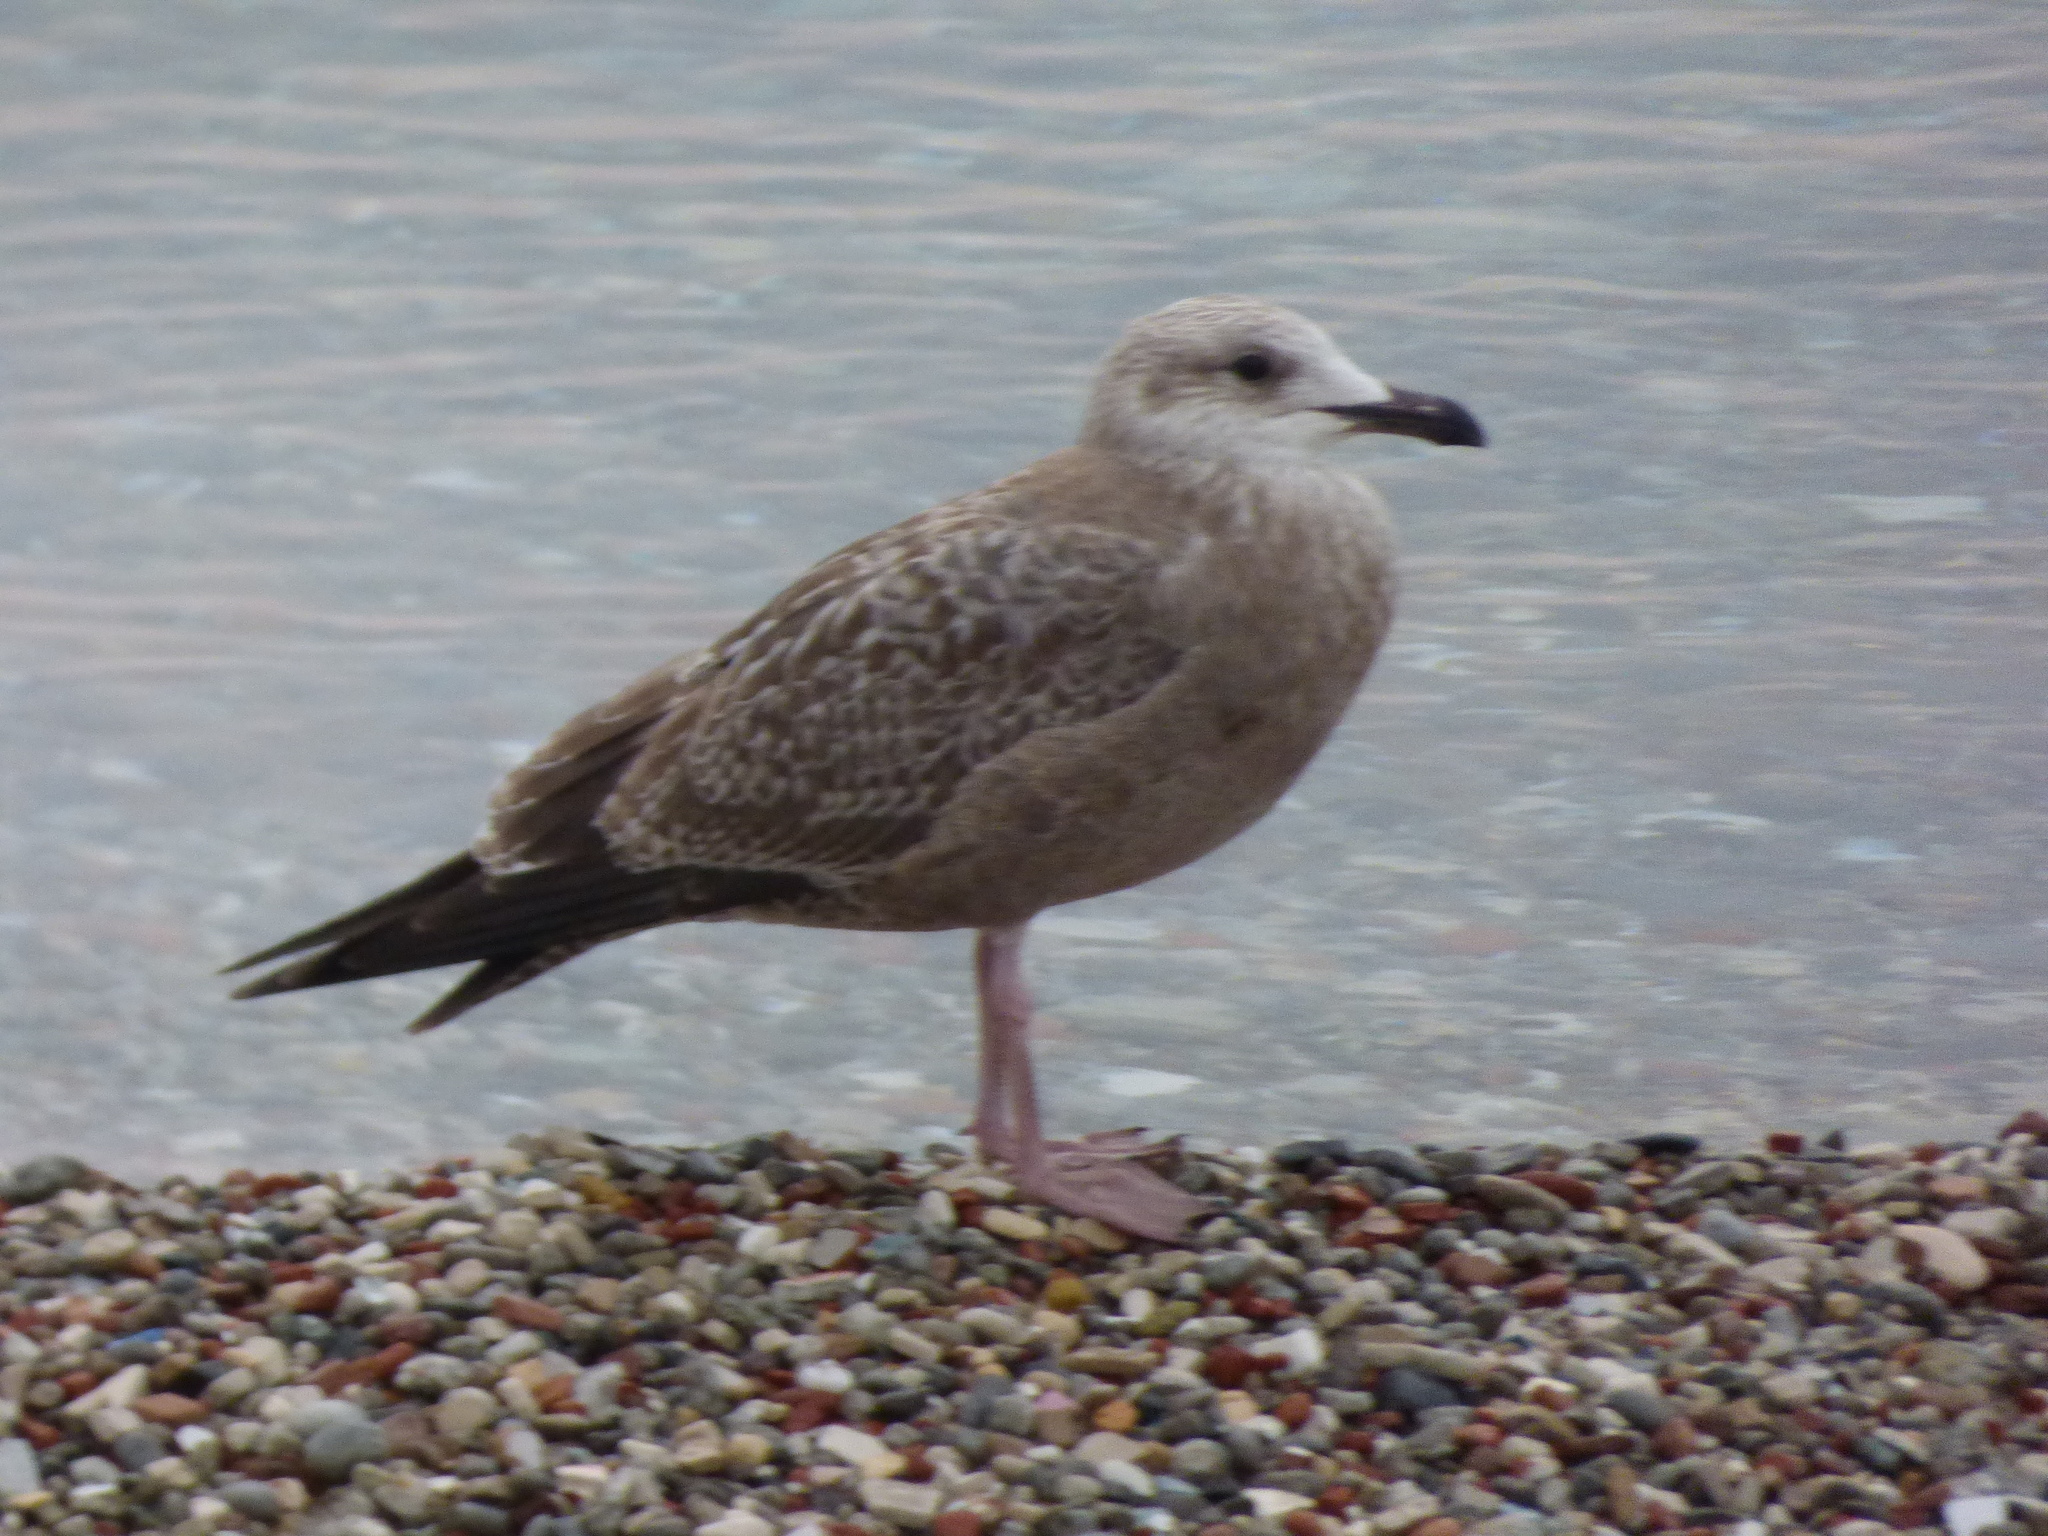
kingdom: Animalia
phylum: Chordata
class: Aves
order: Charadriiformes
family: Laridae
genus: Larus
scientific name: Larus argentatus
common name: Herring gull
